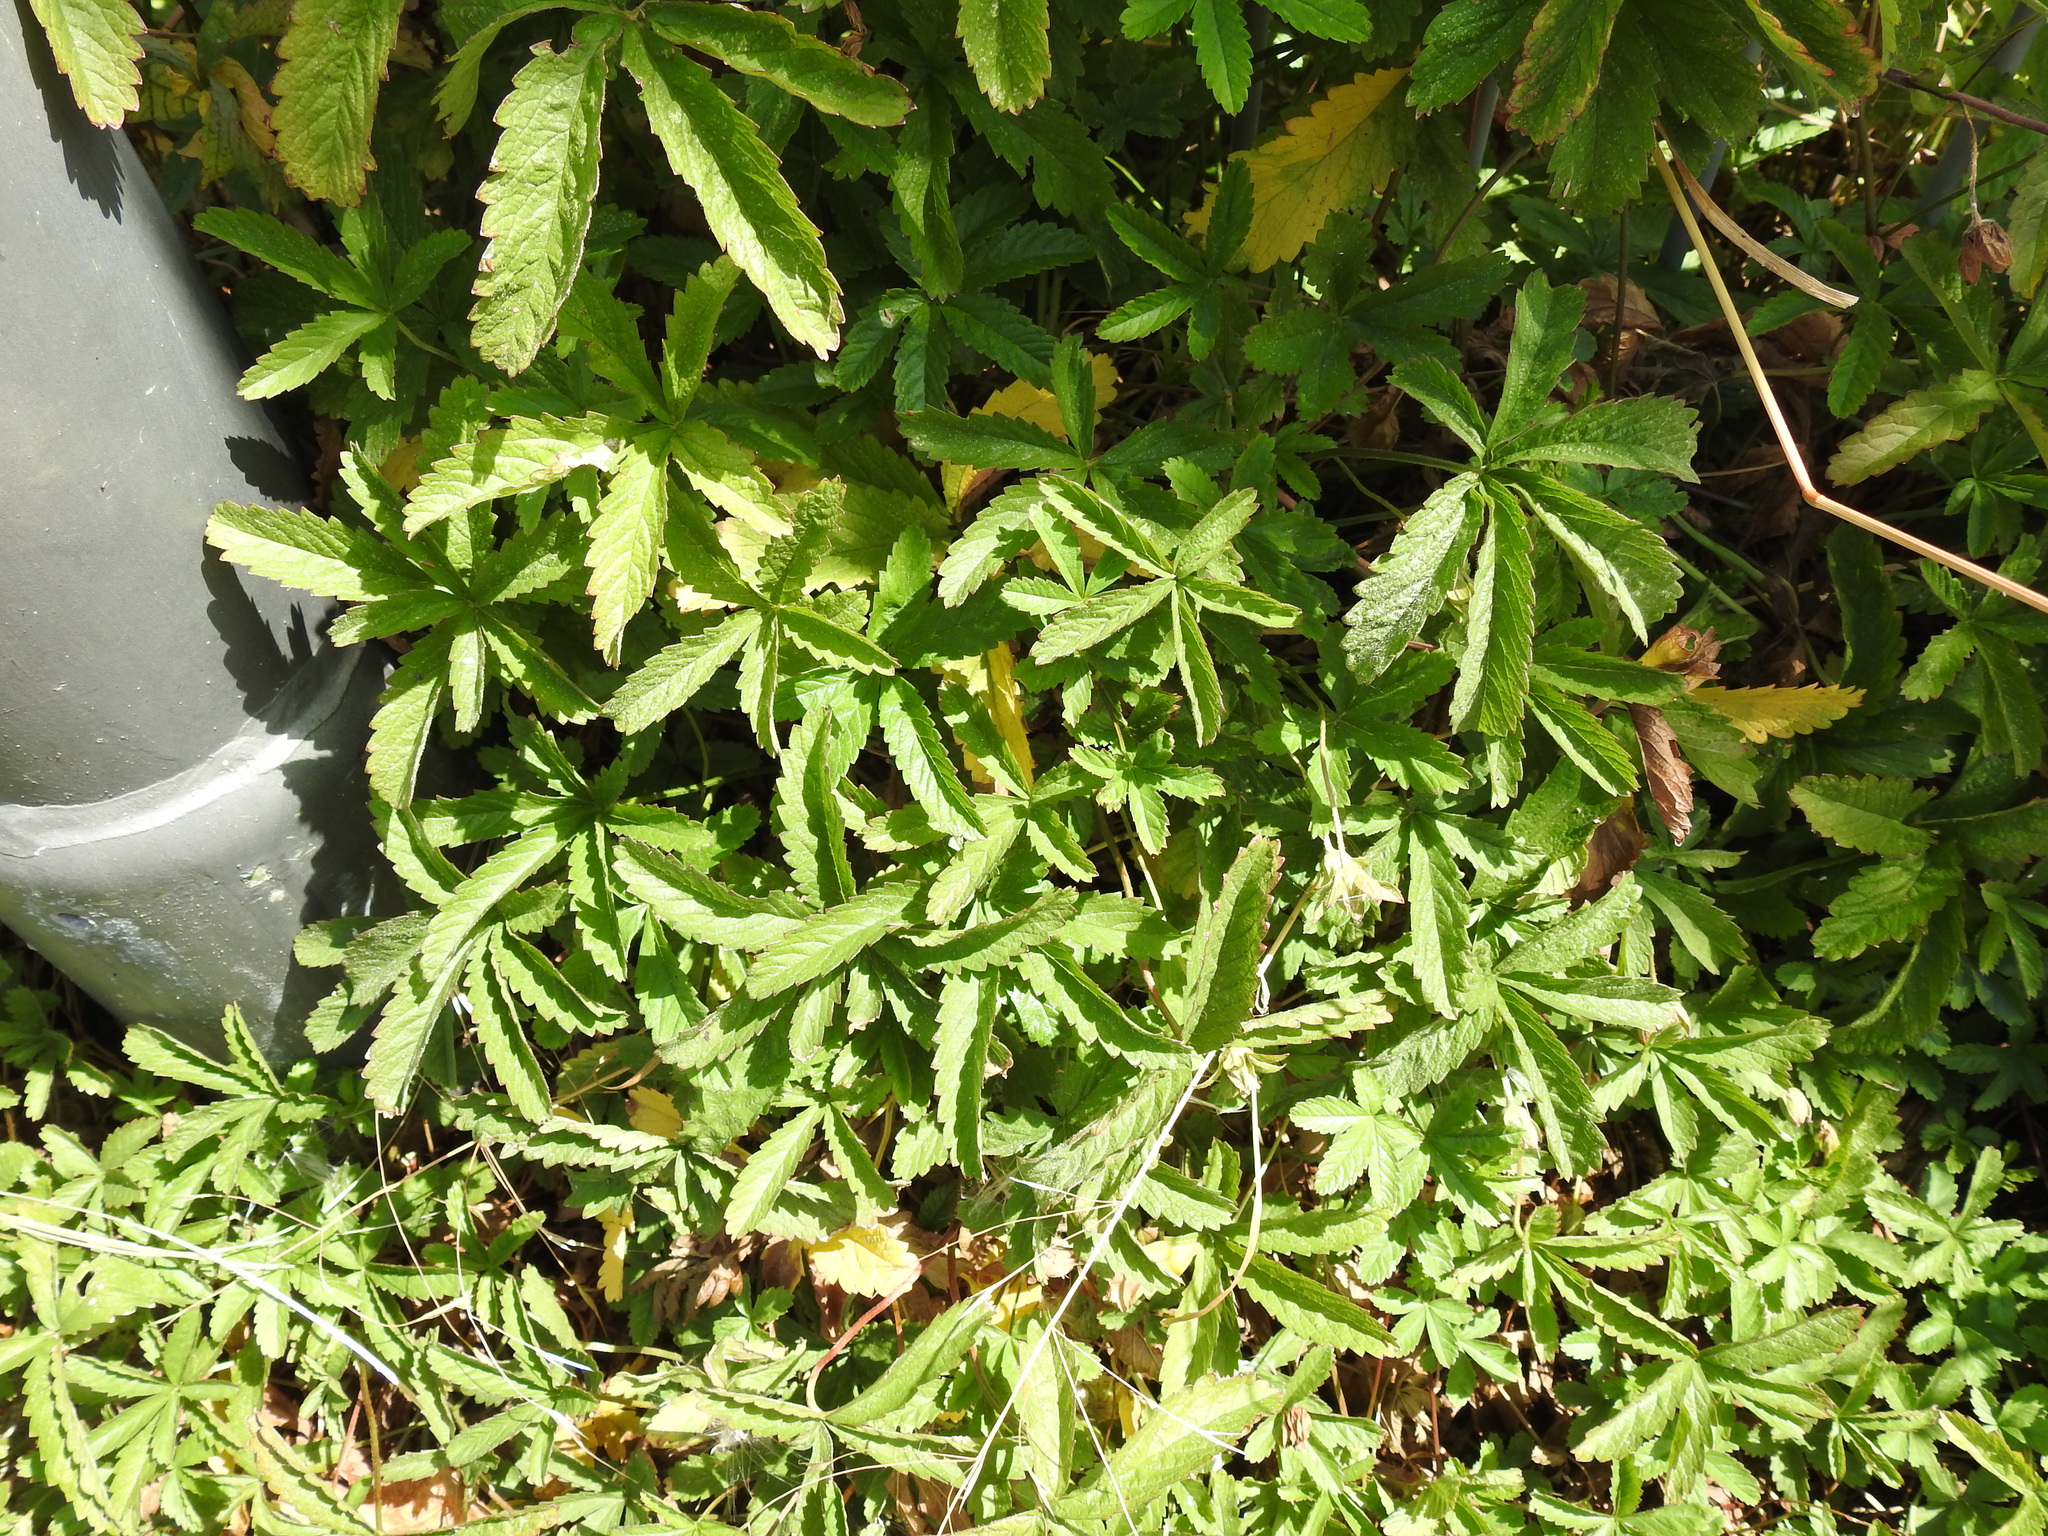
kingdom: Plantae
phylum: Tracheophyta
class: Magnoliopsida
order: Rosales
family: Rosaceae
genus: Potentilla
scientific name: Potentilla reptans
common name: Creeping cinquefoil
